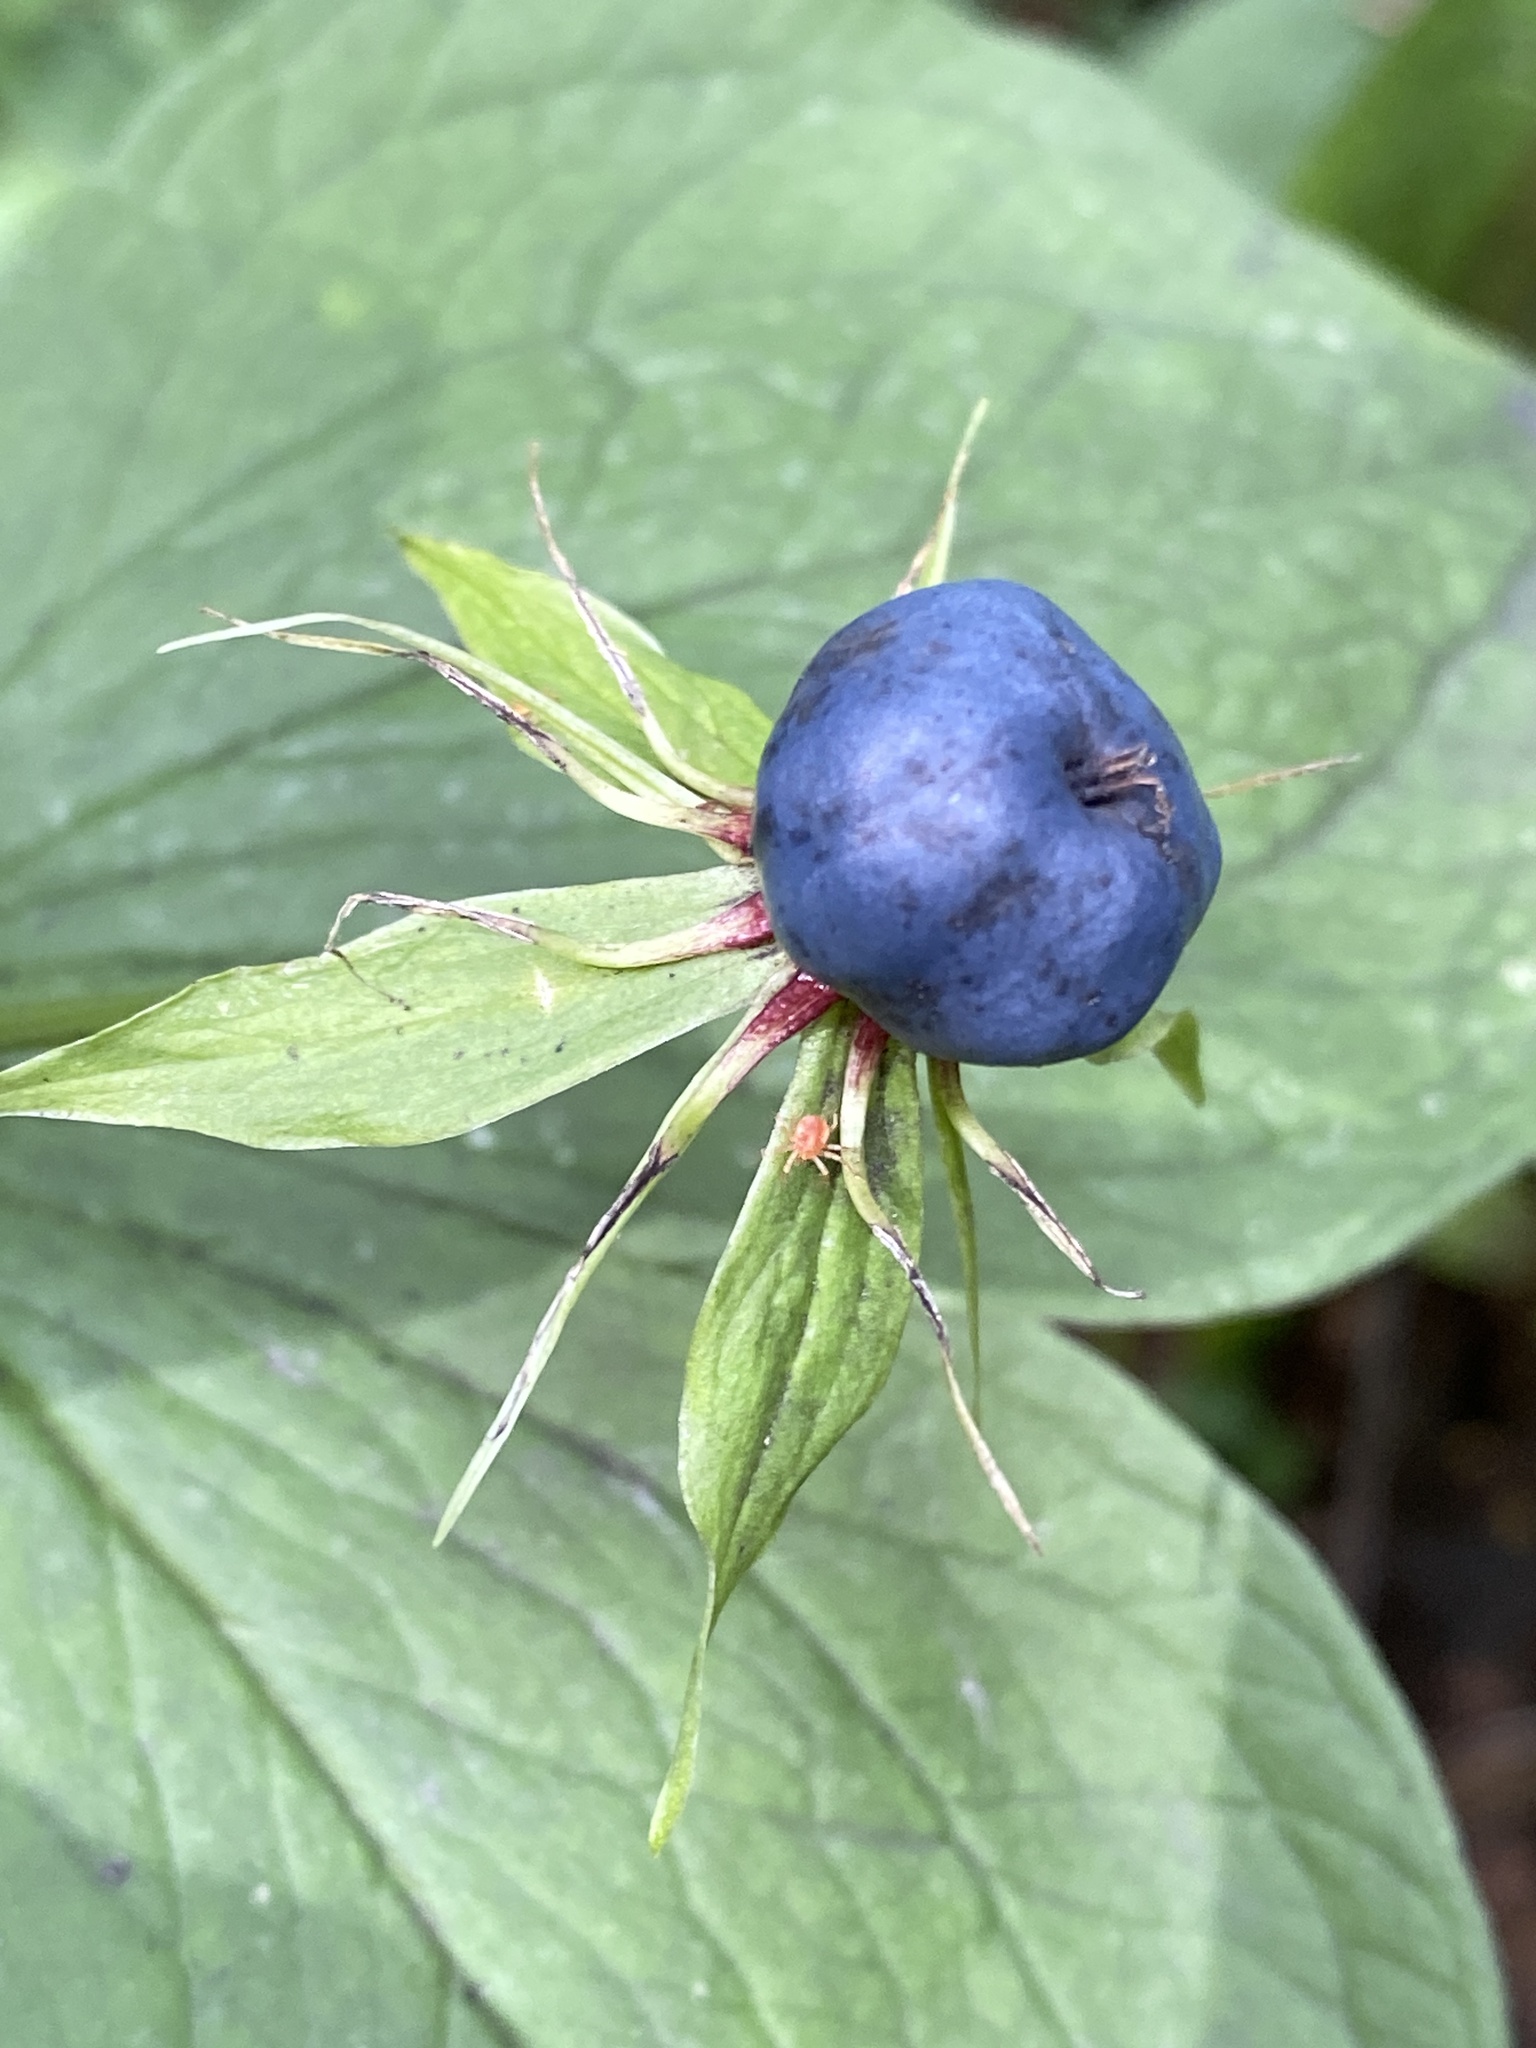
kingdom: Plantae
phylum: Tracheophyta
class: Liliopsida
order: Liliales
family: Melanthiaceae
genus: Paris
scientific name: Paris quadrifolia
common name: Herb-paris
